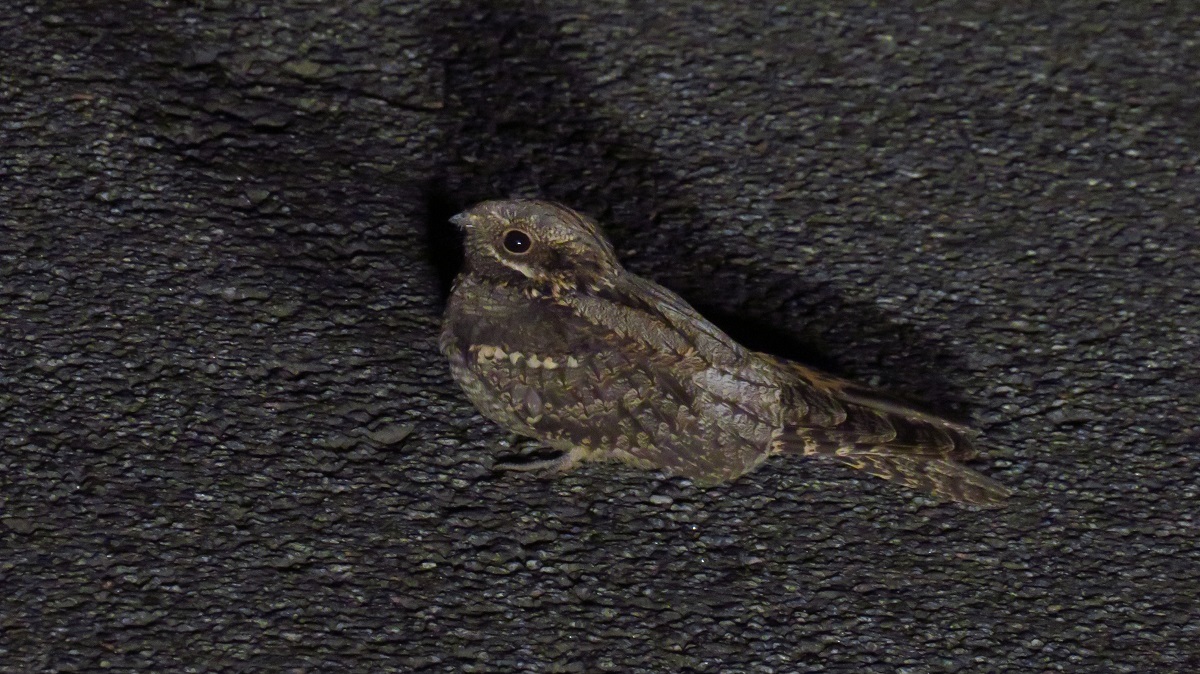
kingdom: Animalia
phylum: Chordata
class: Aves
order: Caprimulgiformes
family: Caprimulgidae
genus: Caprimulgus
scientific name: Caprimulgus europaeus
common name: European nightjar
